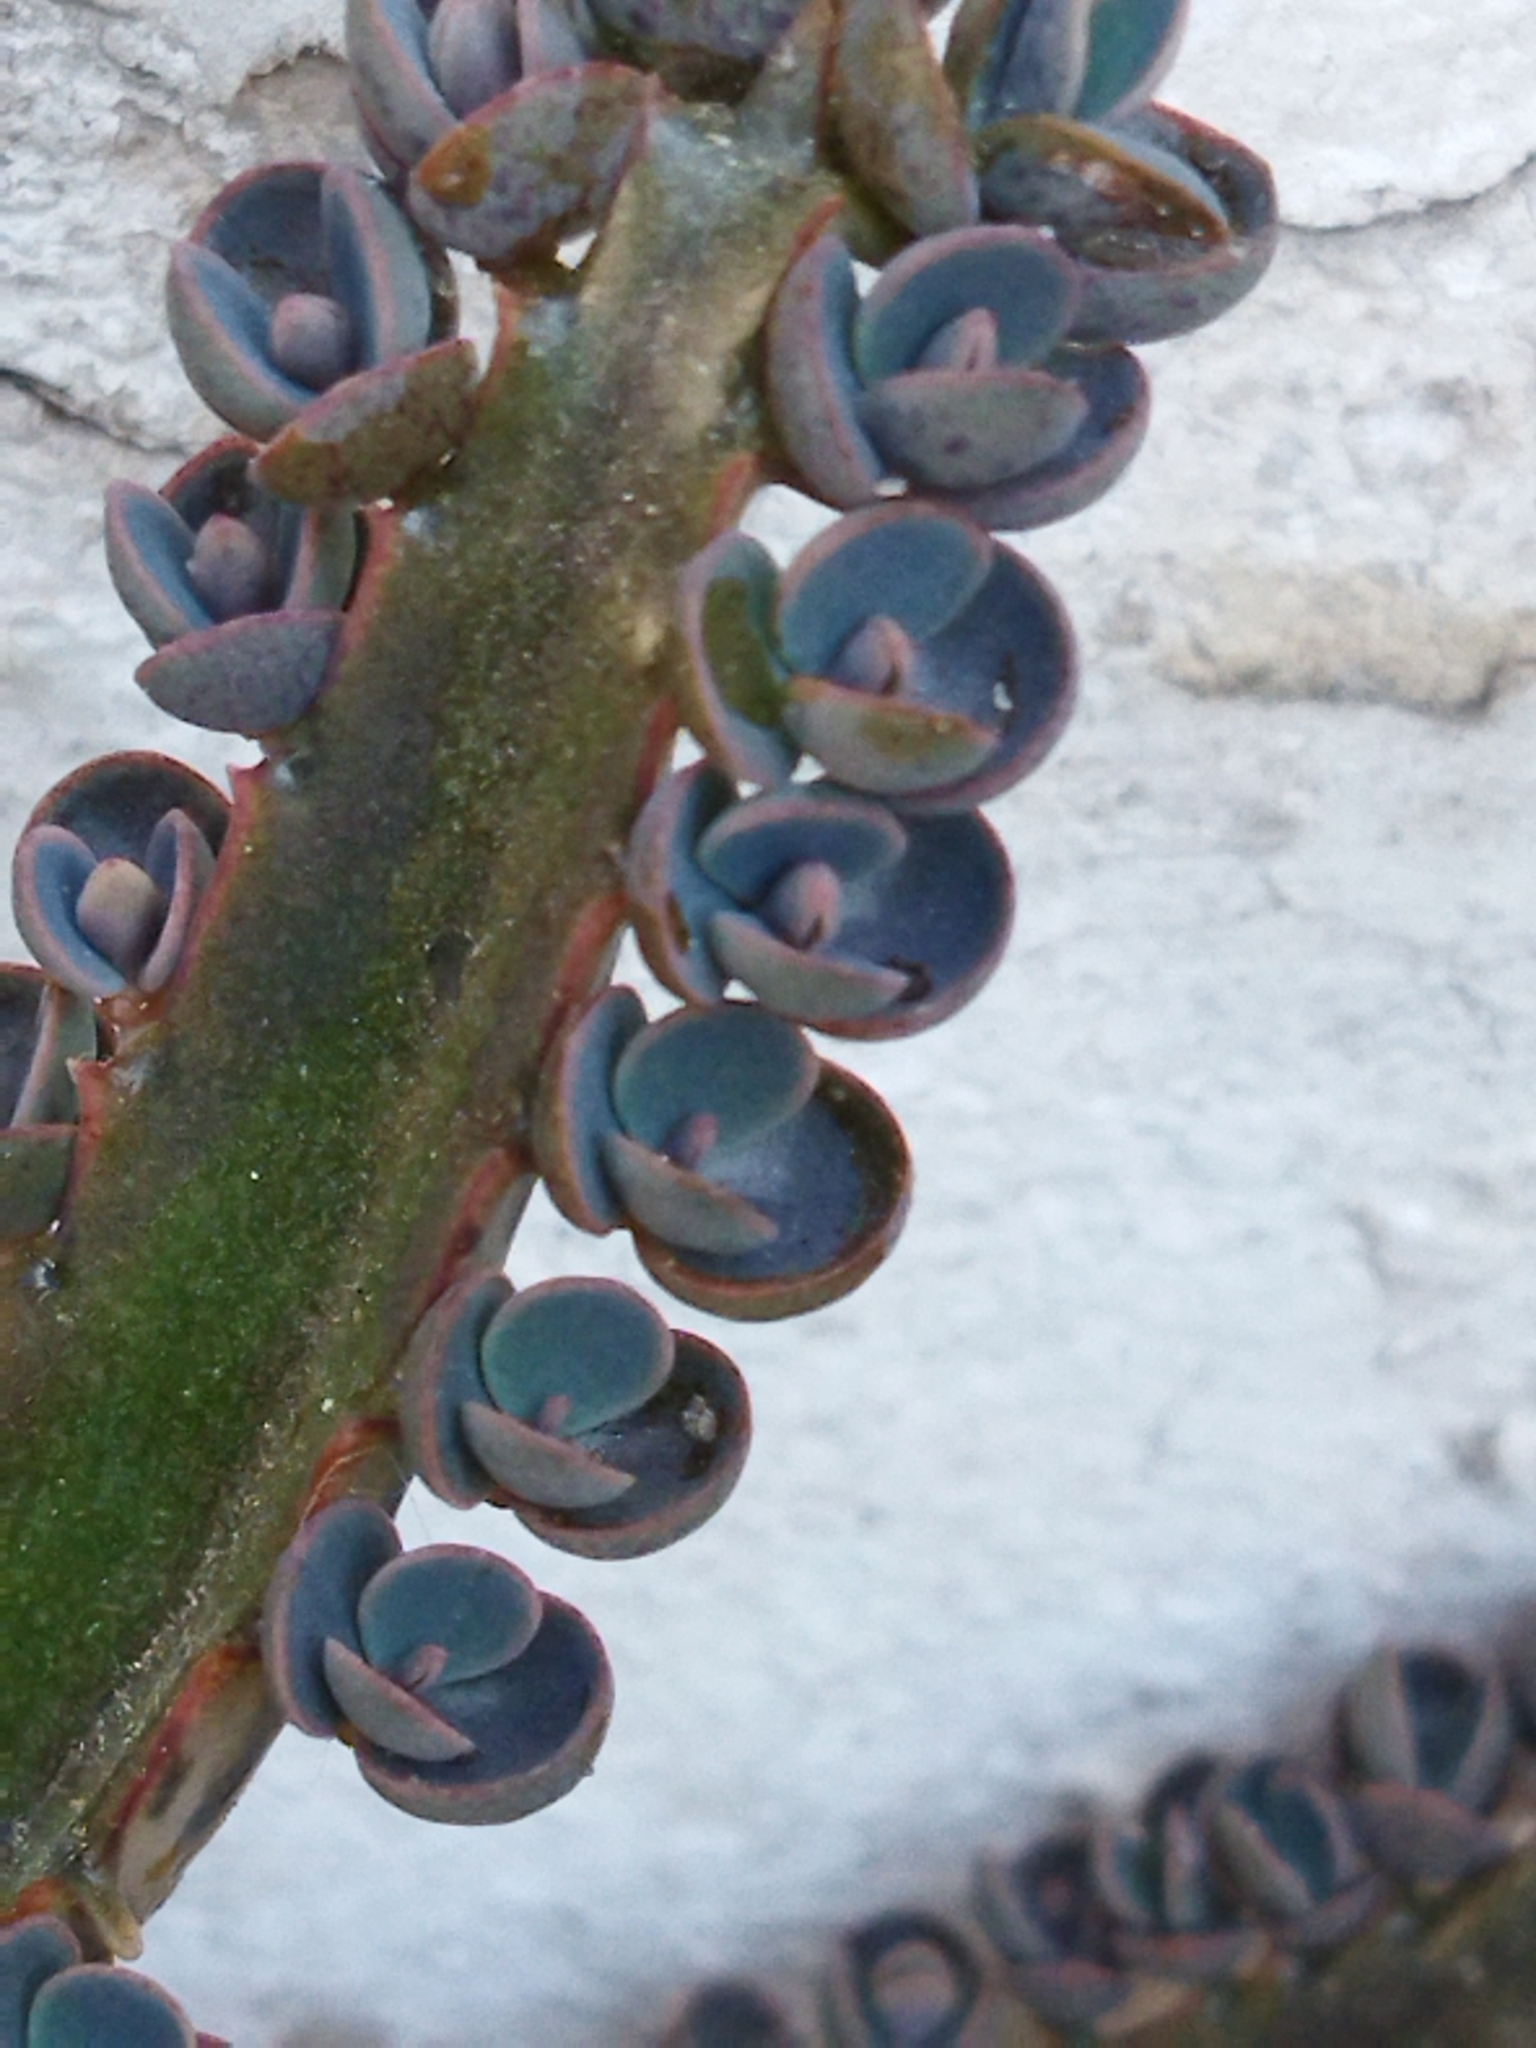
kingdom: Plantae
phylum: Tracheophyta
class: Magnoliopsida
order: Saxifragales
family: Crassulaceae
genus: Kalanchoe
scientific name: Kalanchoe houghtonii
